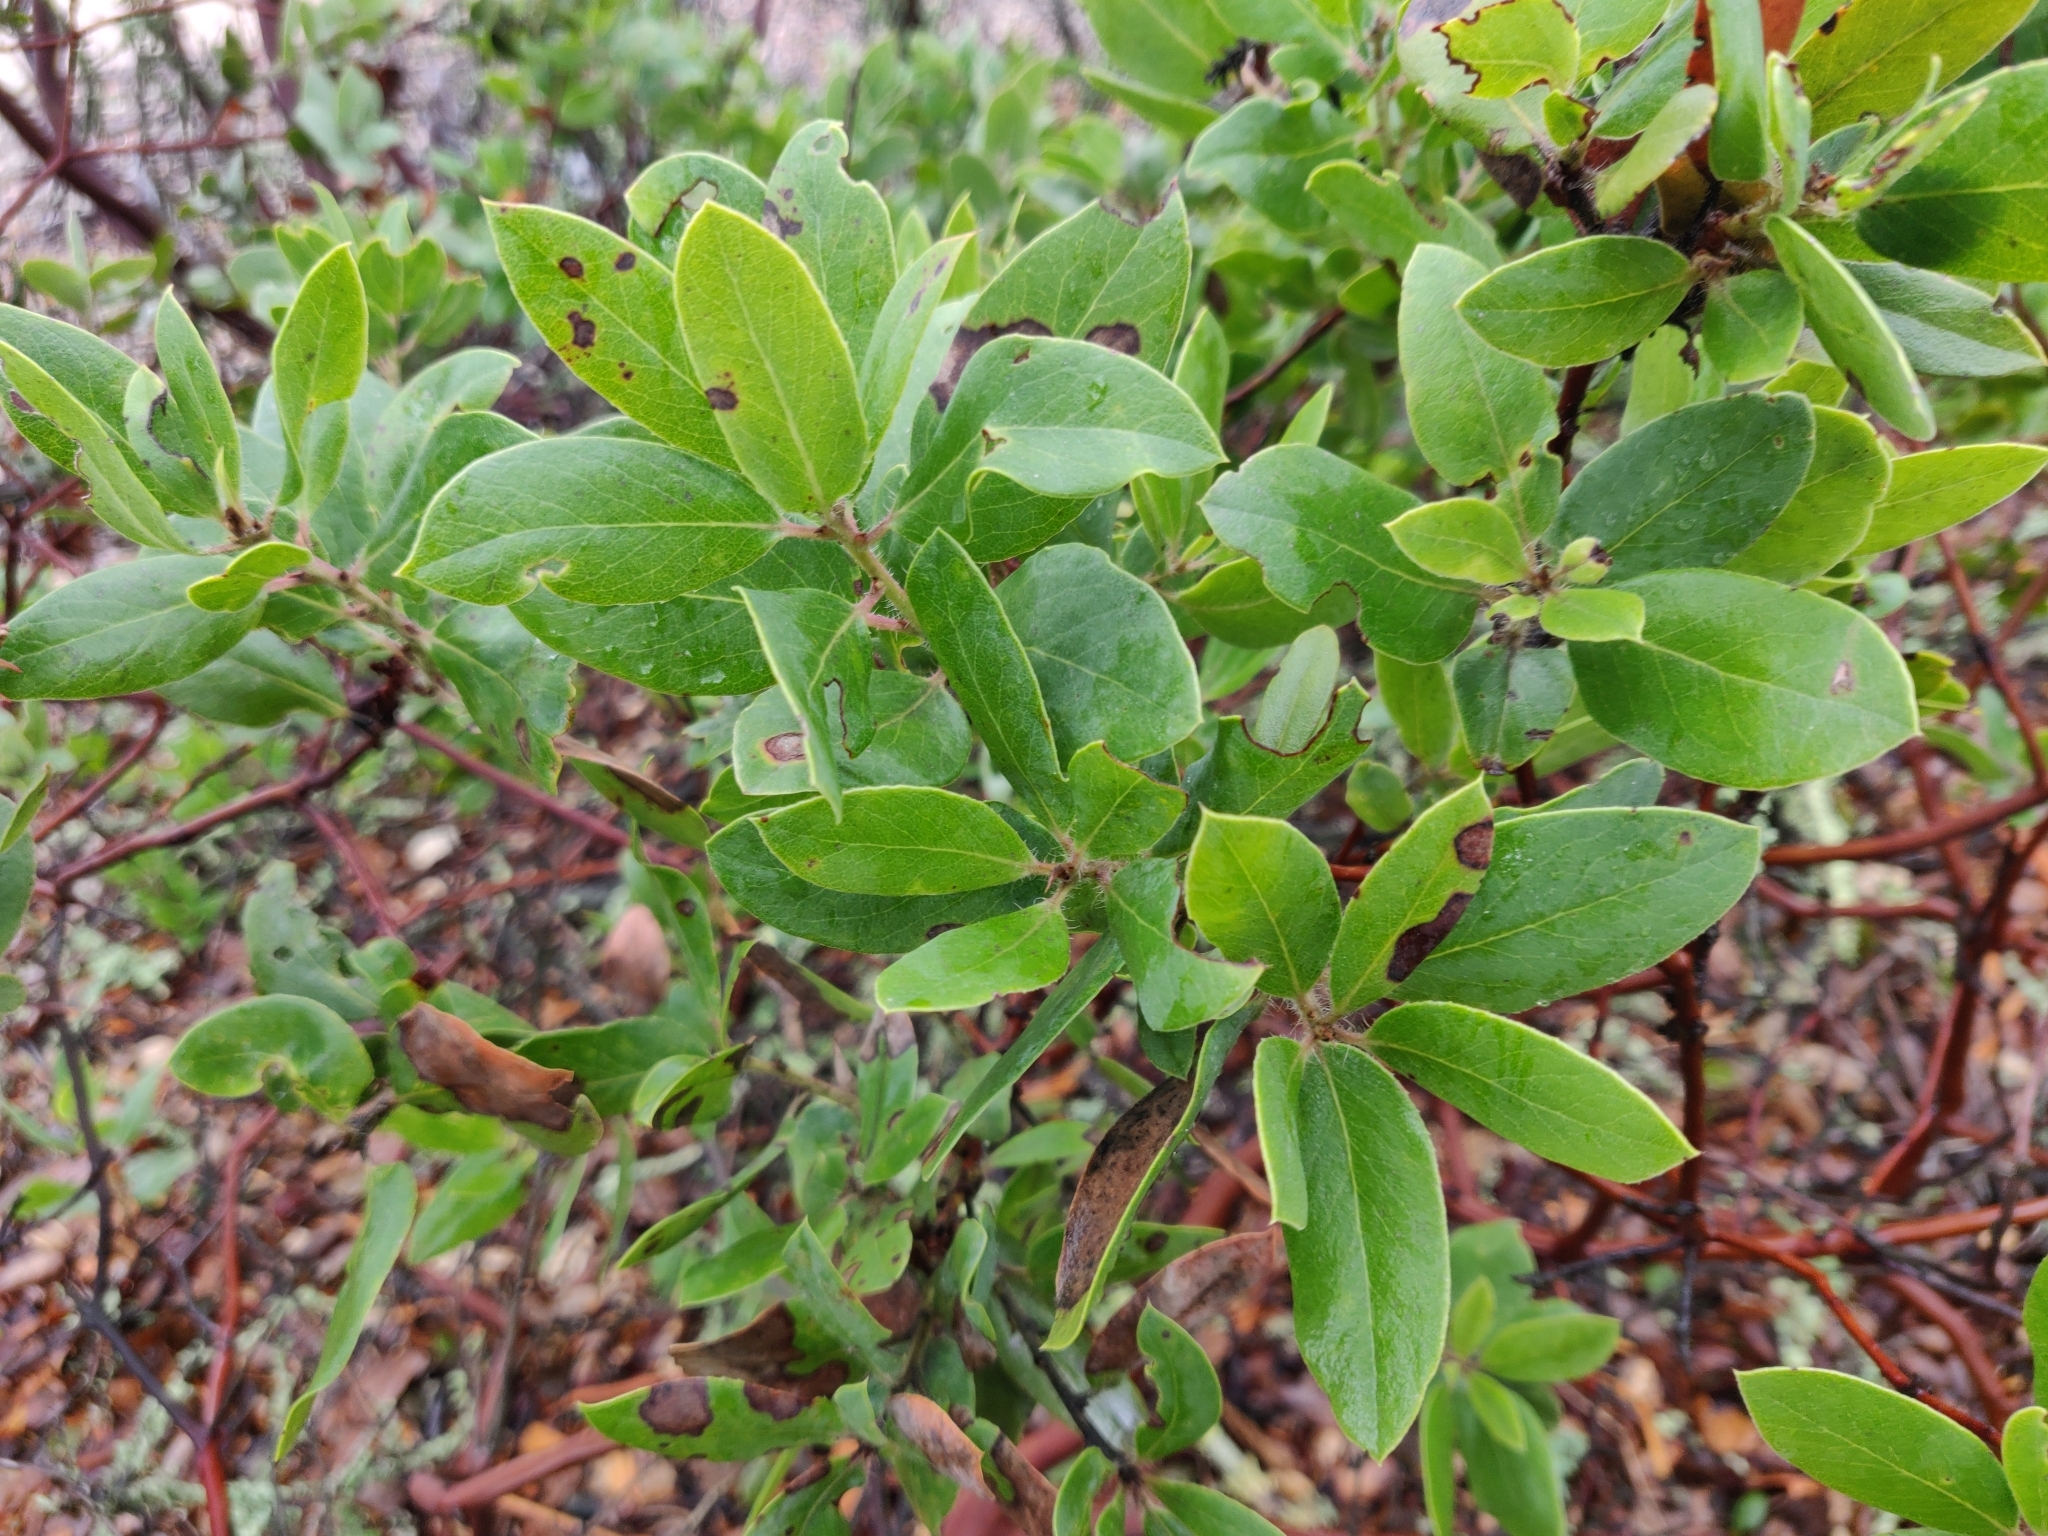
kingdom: Plantae
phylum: Tracheophyta
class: Magnoliopsida
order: Ericales
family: Ericaceae
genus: Arctostaphylos
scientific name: Arctostaphylos glandulosa
